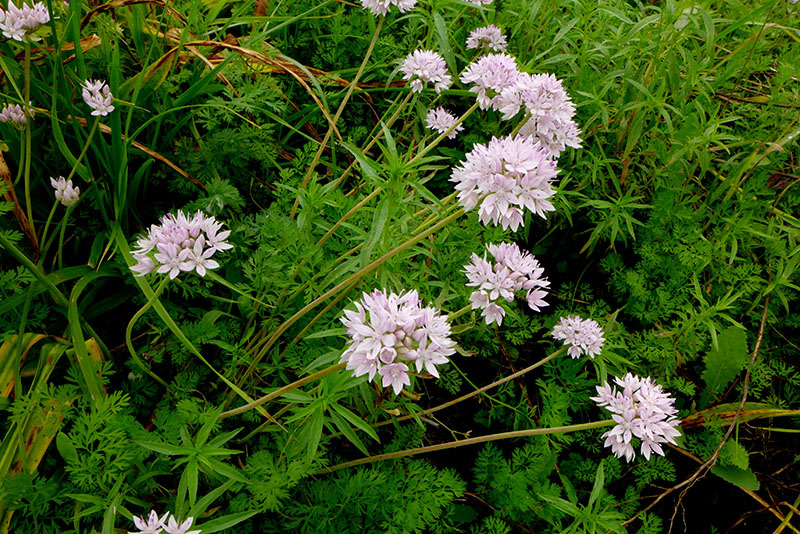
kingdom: Plantae
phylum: Tracheophyta
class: Liliopsida
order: Asparagales
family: Amaryllidaceae
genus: Allium
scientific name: Allium amplectens
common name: Narrow-leaved onion
